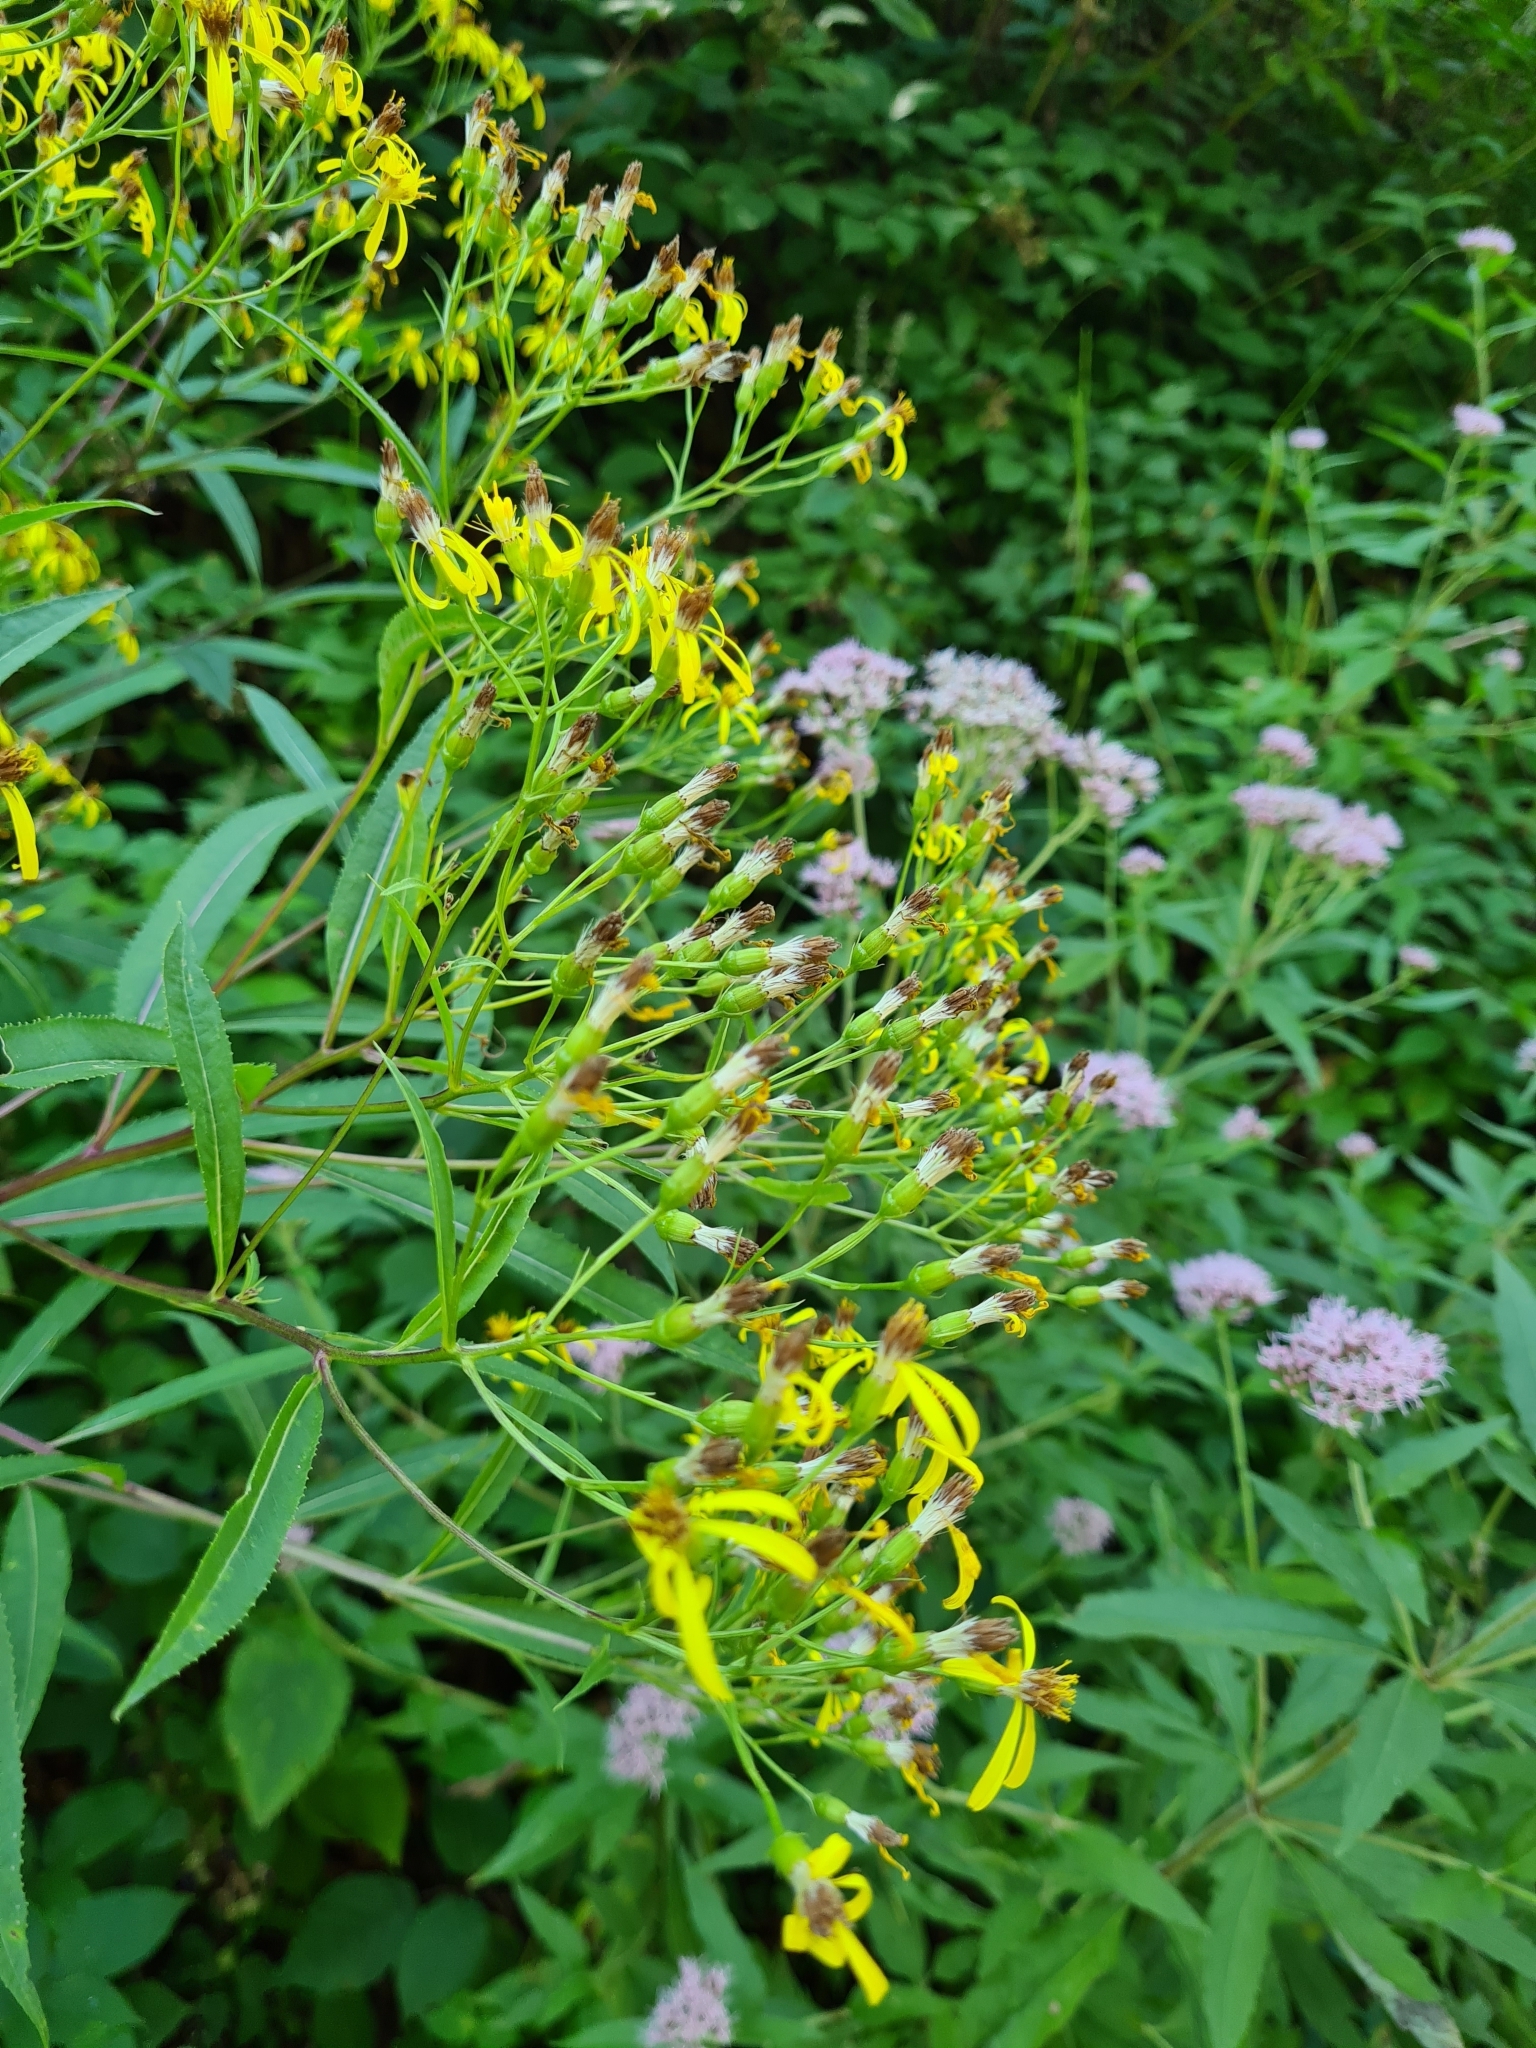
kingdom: Plantae
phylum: Tracheophyta
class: Magnoliopsida
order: Asterales
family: Asteraceae
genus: Senecio
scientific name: Senecio ovatus
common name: Wood ragwort
